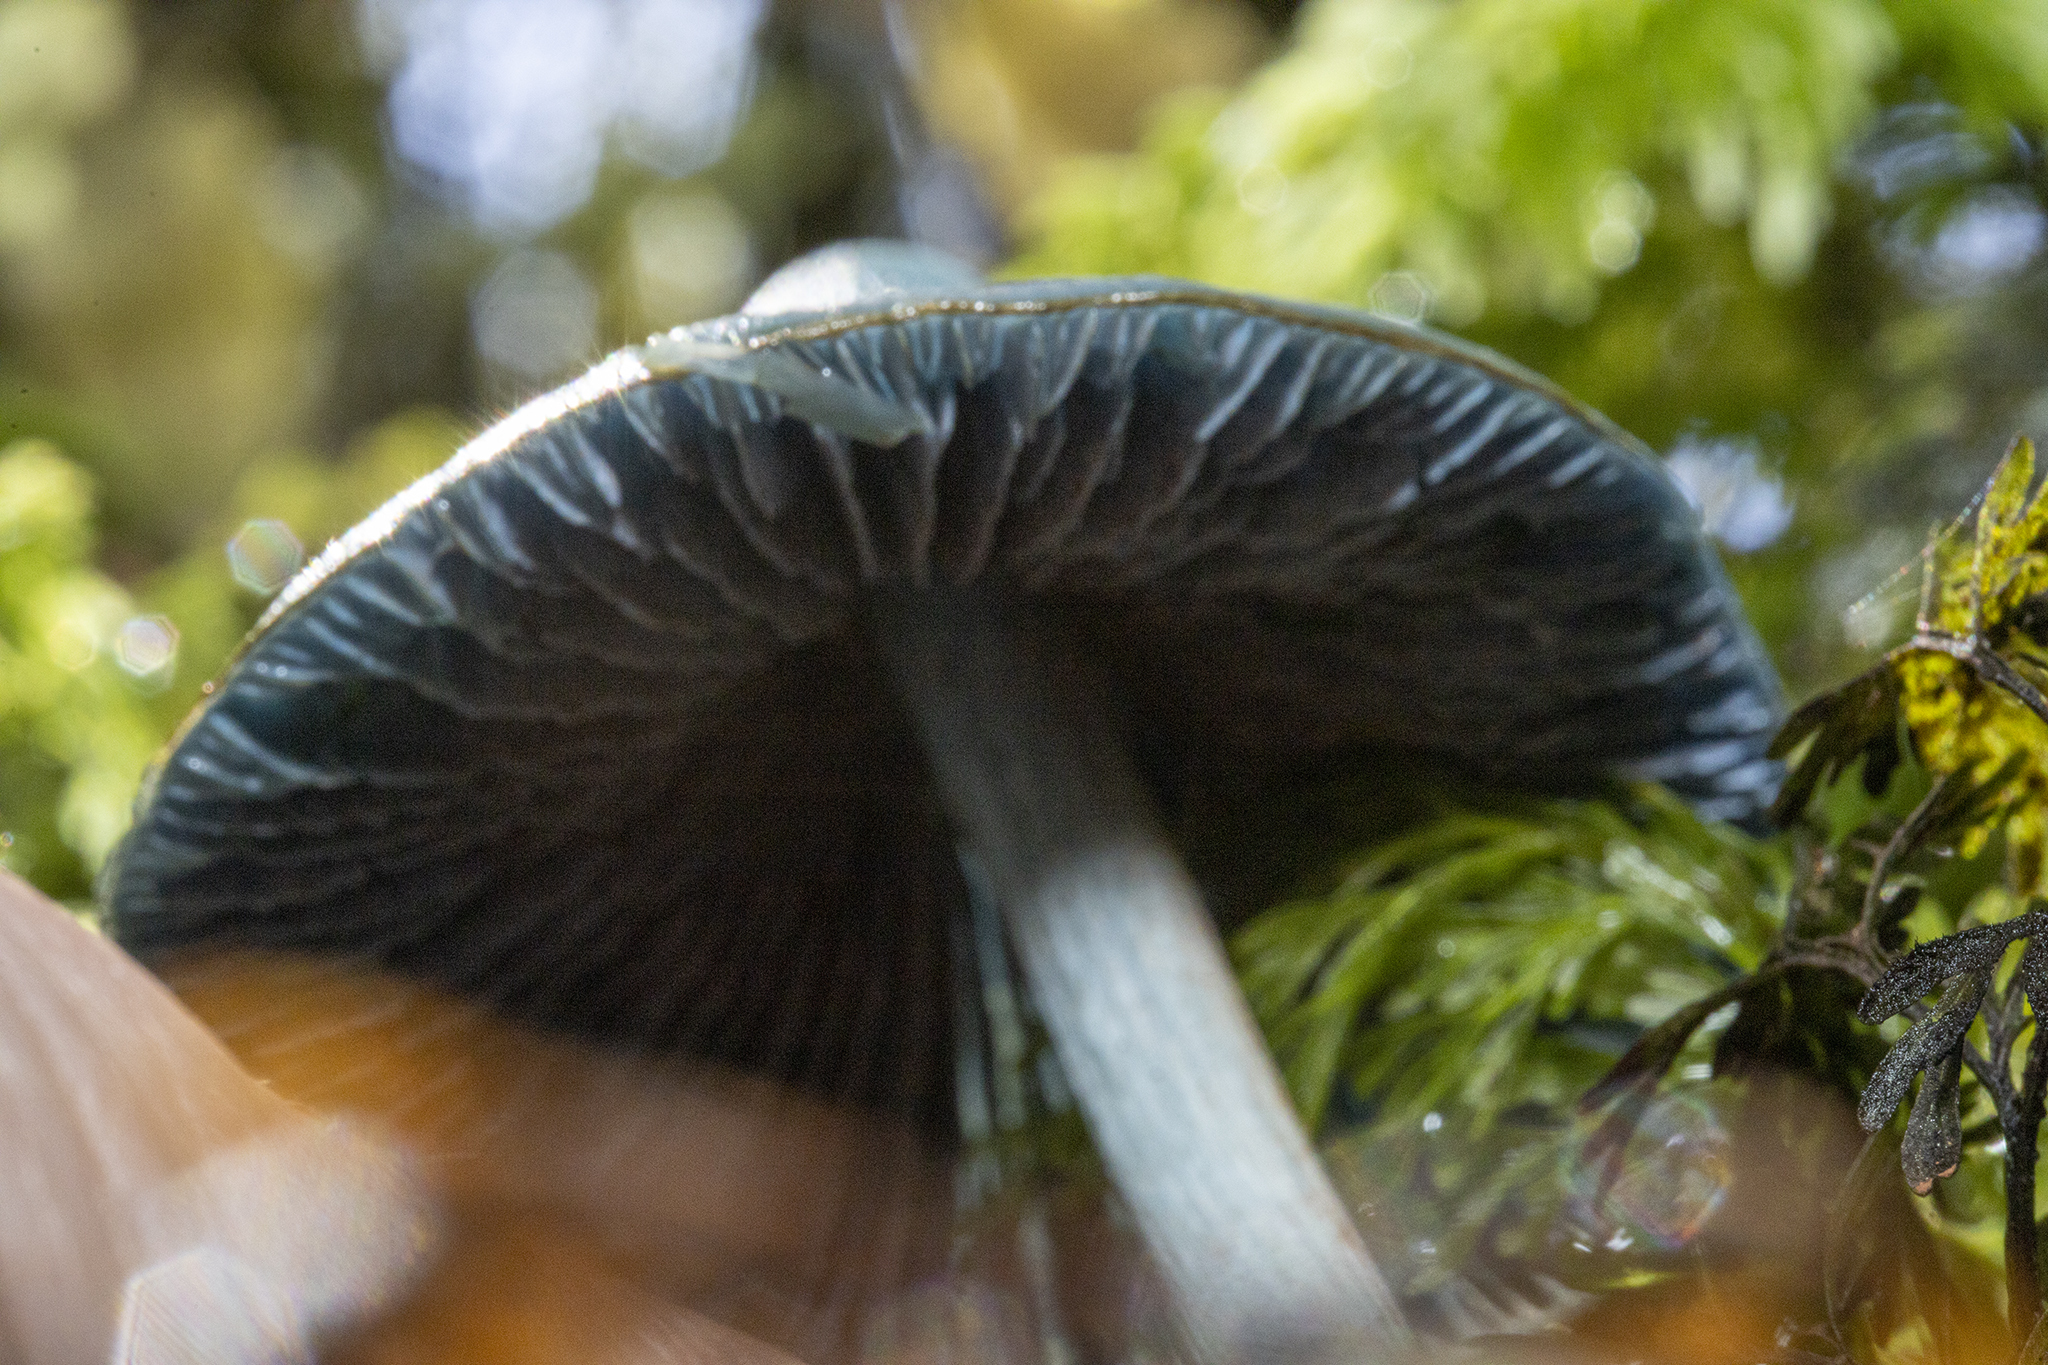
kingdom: Fungi
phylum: Basidiomycota
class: Agaricomycetes
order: Agaricales
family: Entolomataceae
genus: Entoloma
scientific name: Entoloma hochstetteri
